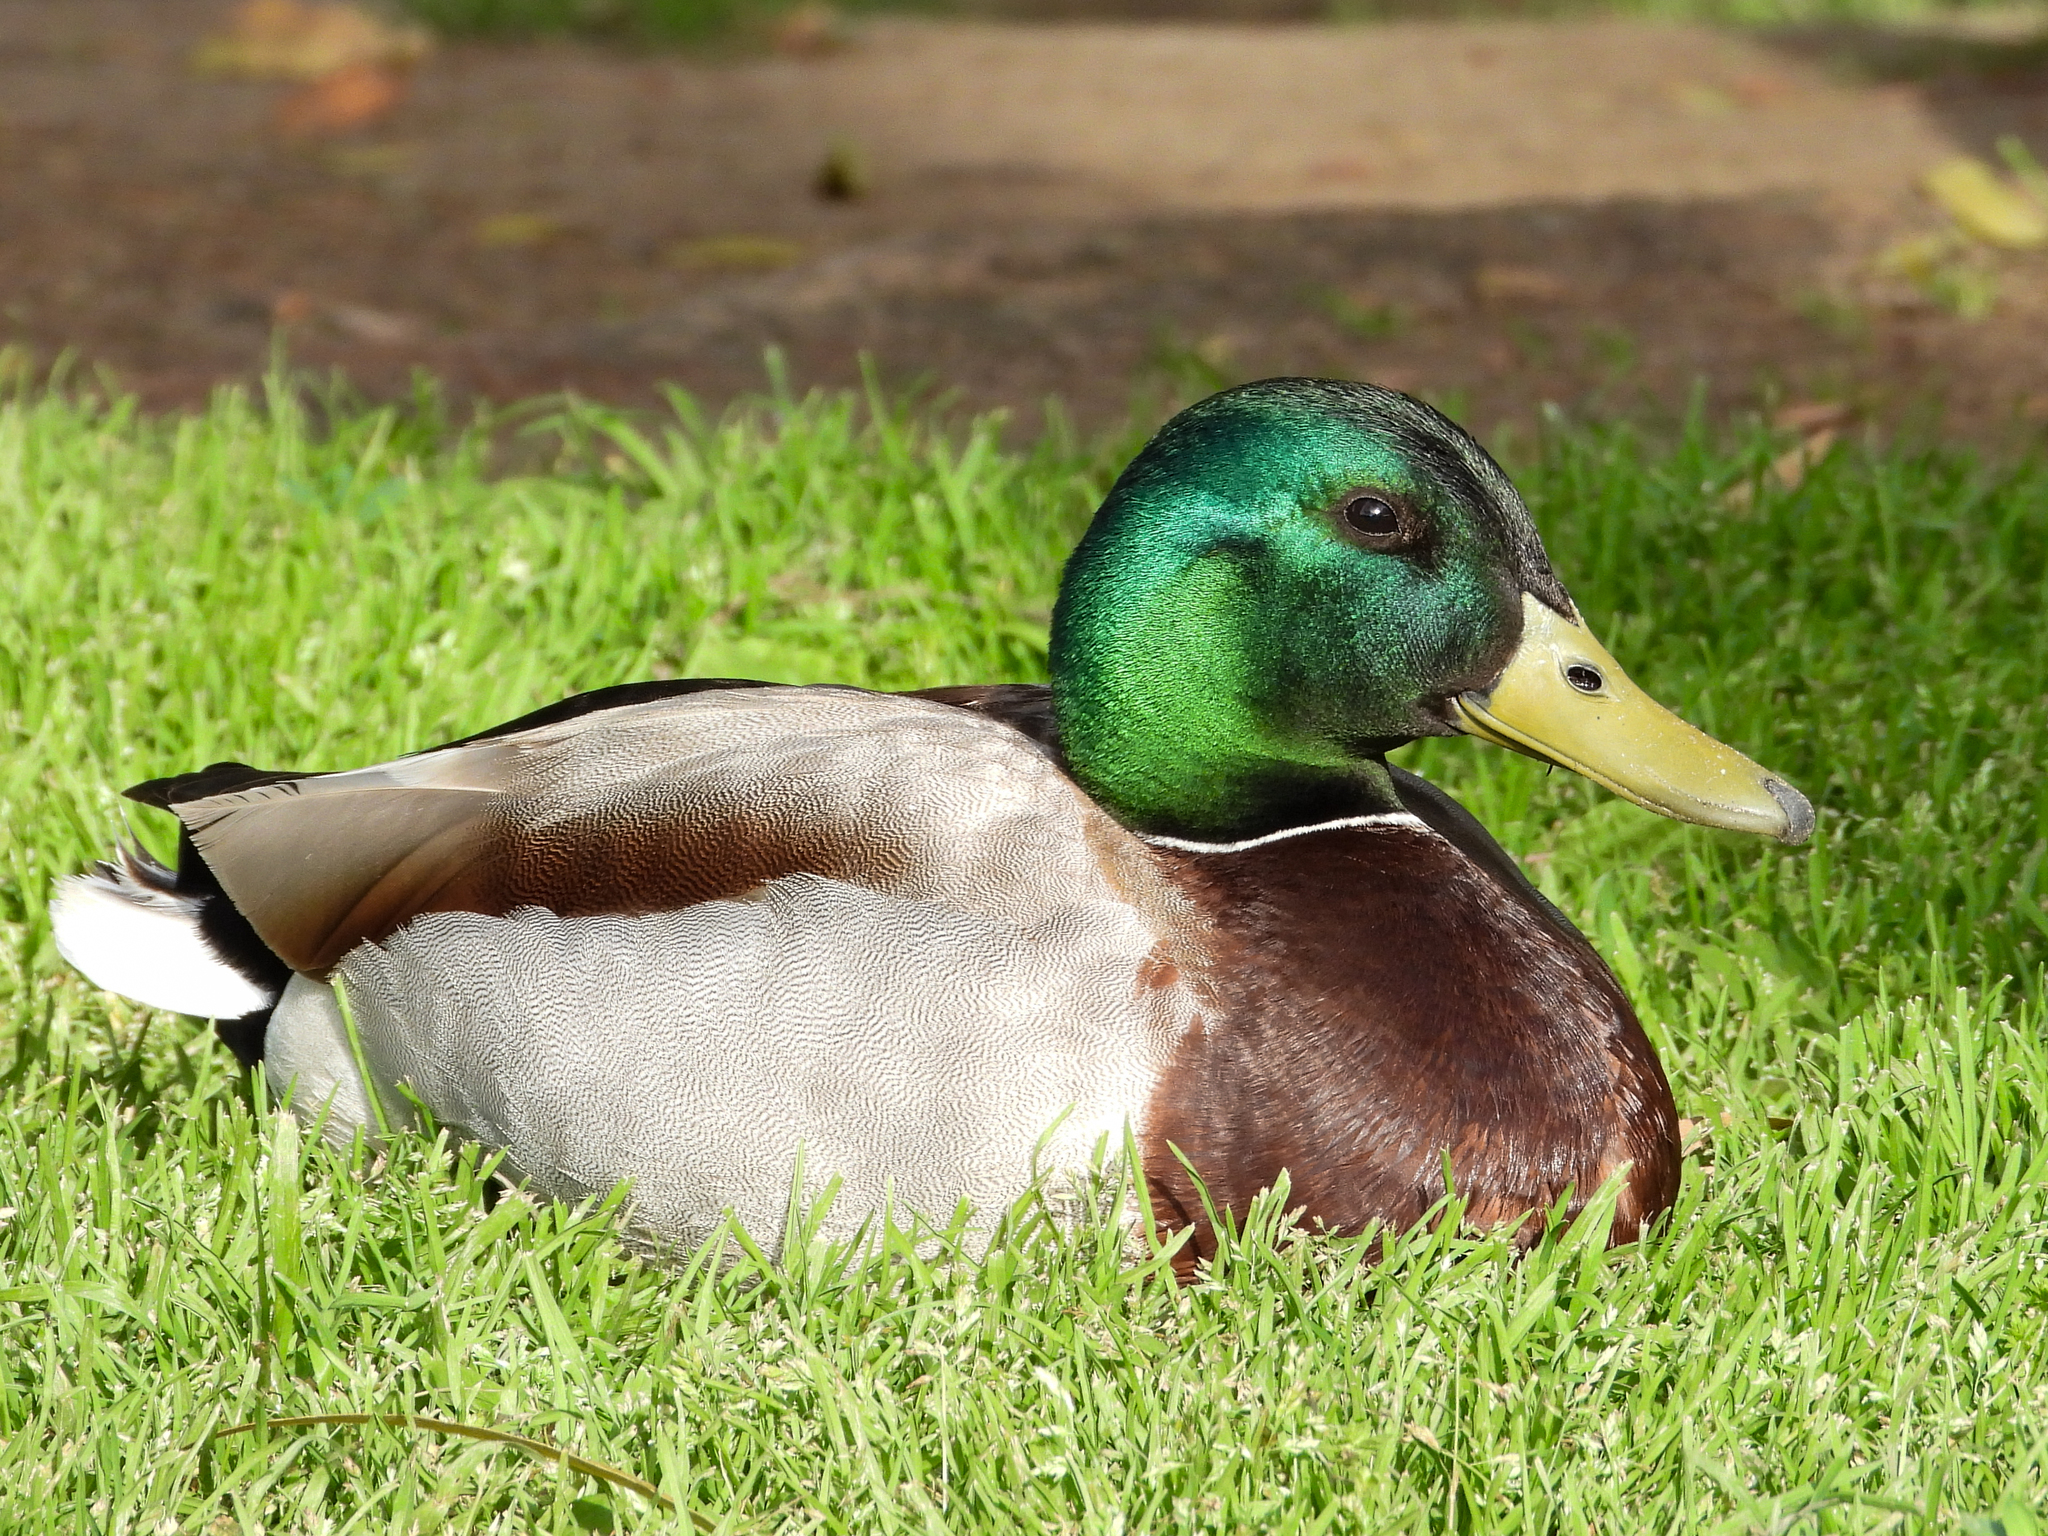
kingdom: Animalia
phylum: Chordata
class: Aves
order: Anseriformes
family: Anatidae
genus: Anas
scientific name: Anas platyrhynchos
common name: Mallard
